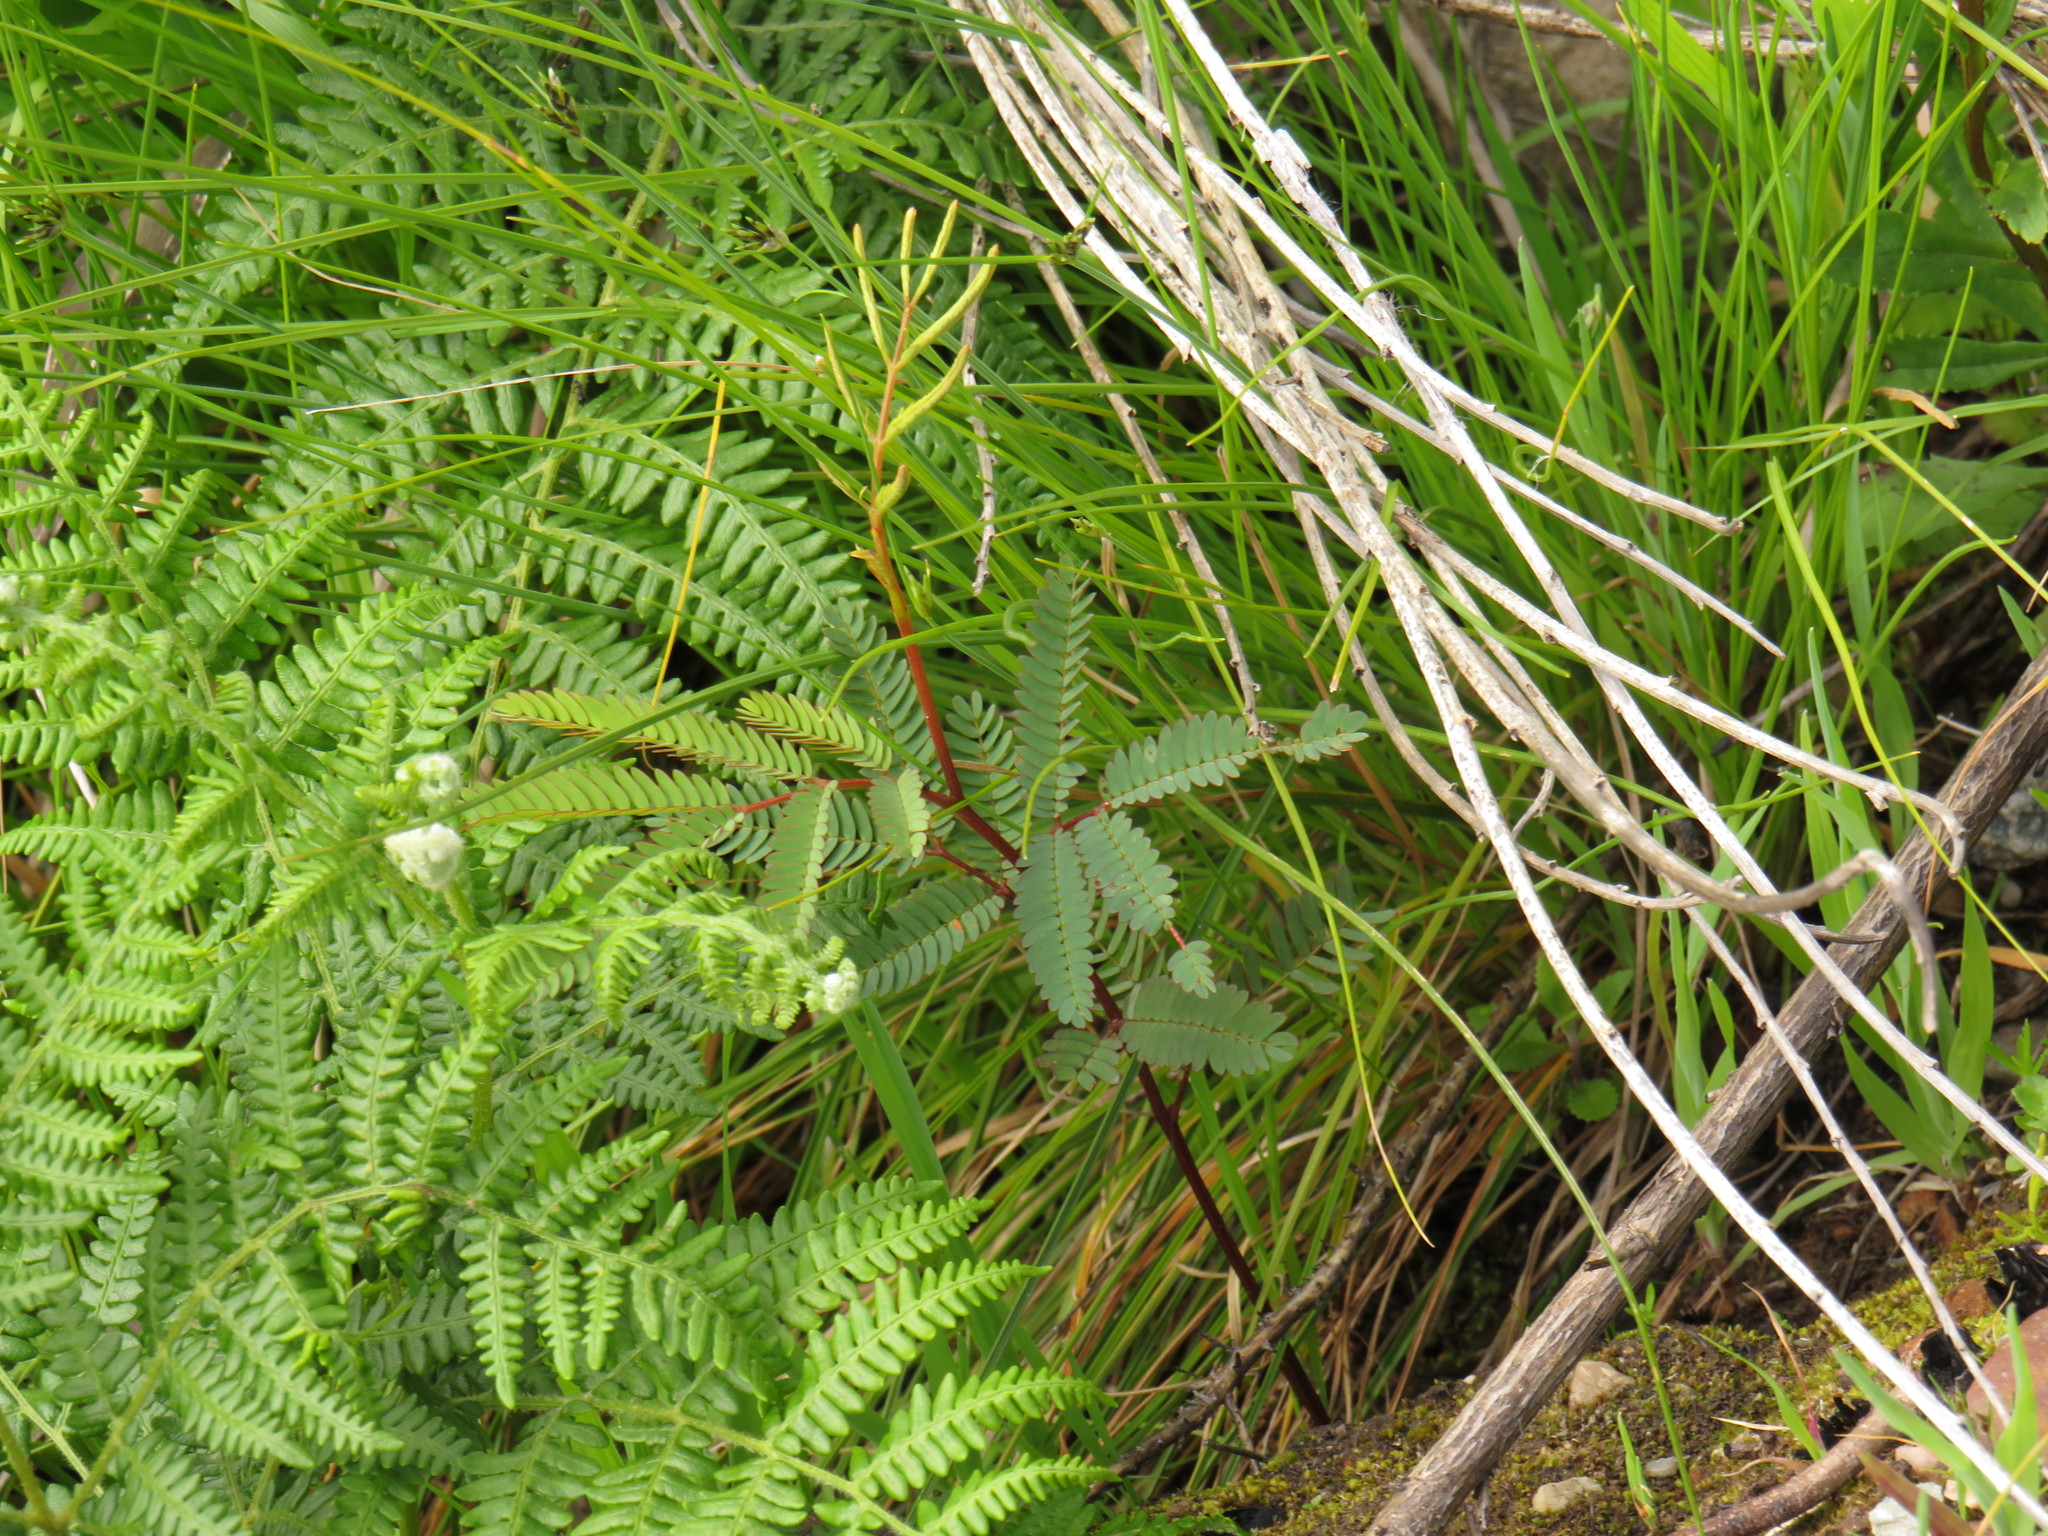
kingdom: Plantae
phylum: Tracheophyta
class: Magnoliopsida
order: Fabales
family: Fabaceae
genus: Paraserianthes
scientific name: Paraserianthes lophantha
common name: Plume albizia
